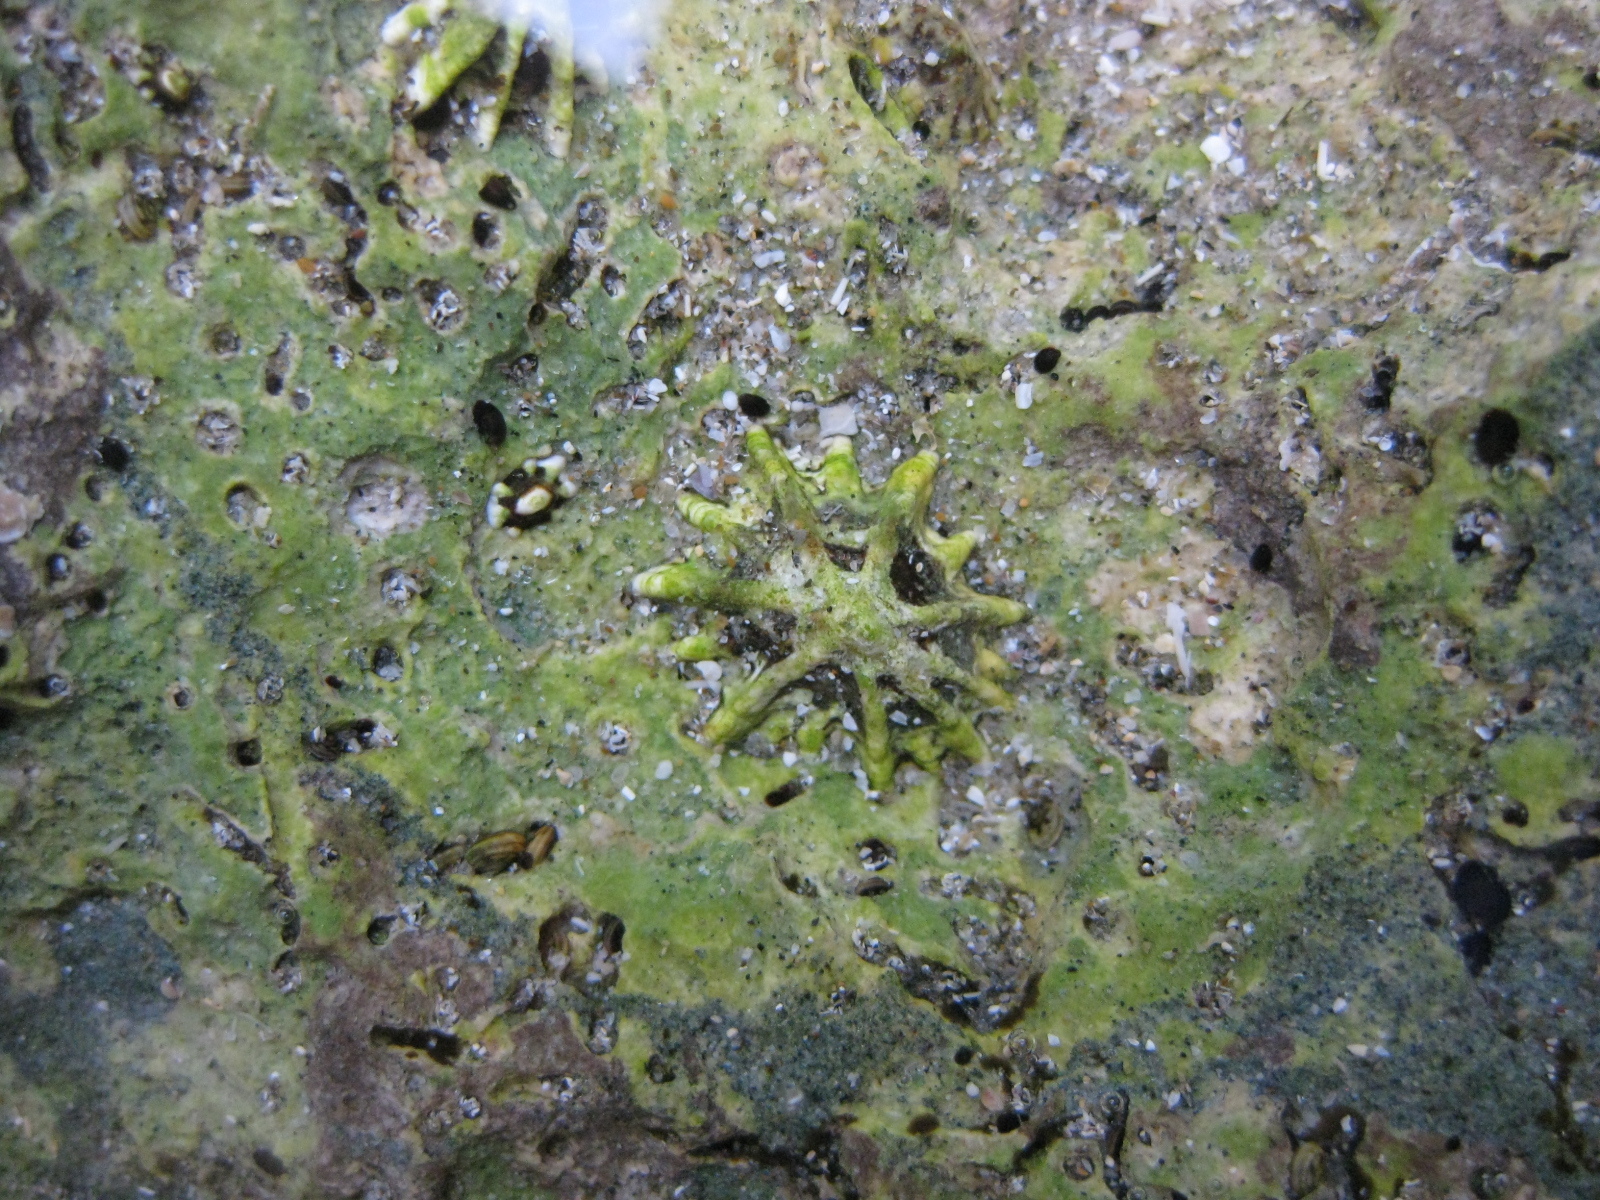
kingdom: Animalia
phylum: Mollusca
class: Gastropoda
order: Littorinimorpha
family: Littorinidae
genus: Risellopsis
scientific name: Risellopsis varia
